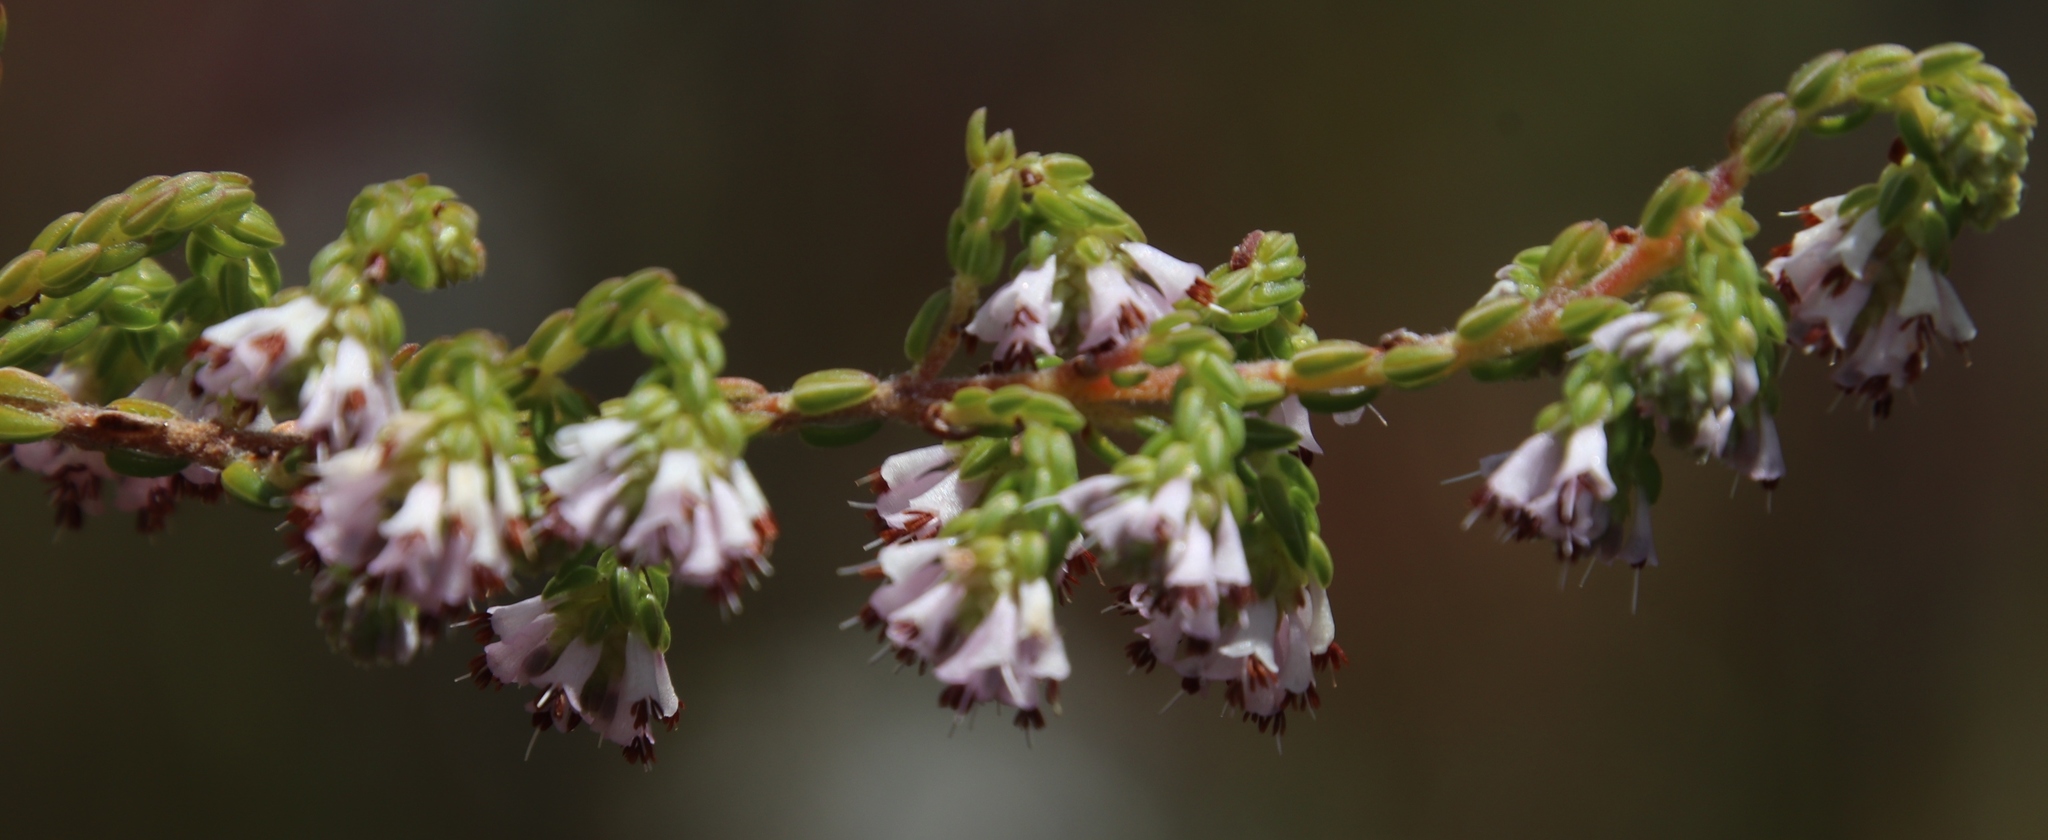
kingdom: Plantae
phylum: Tracheophyta
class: Magnoliopsida
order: Ericales
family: Ericaceae
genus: Erica
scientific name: Erica labialis
